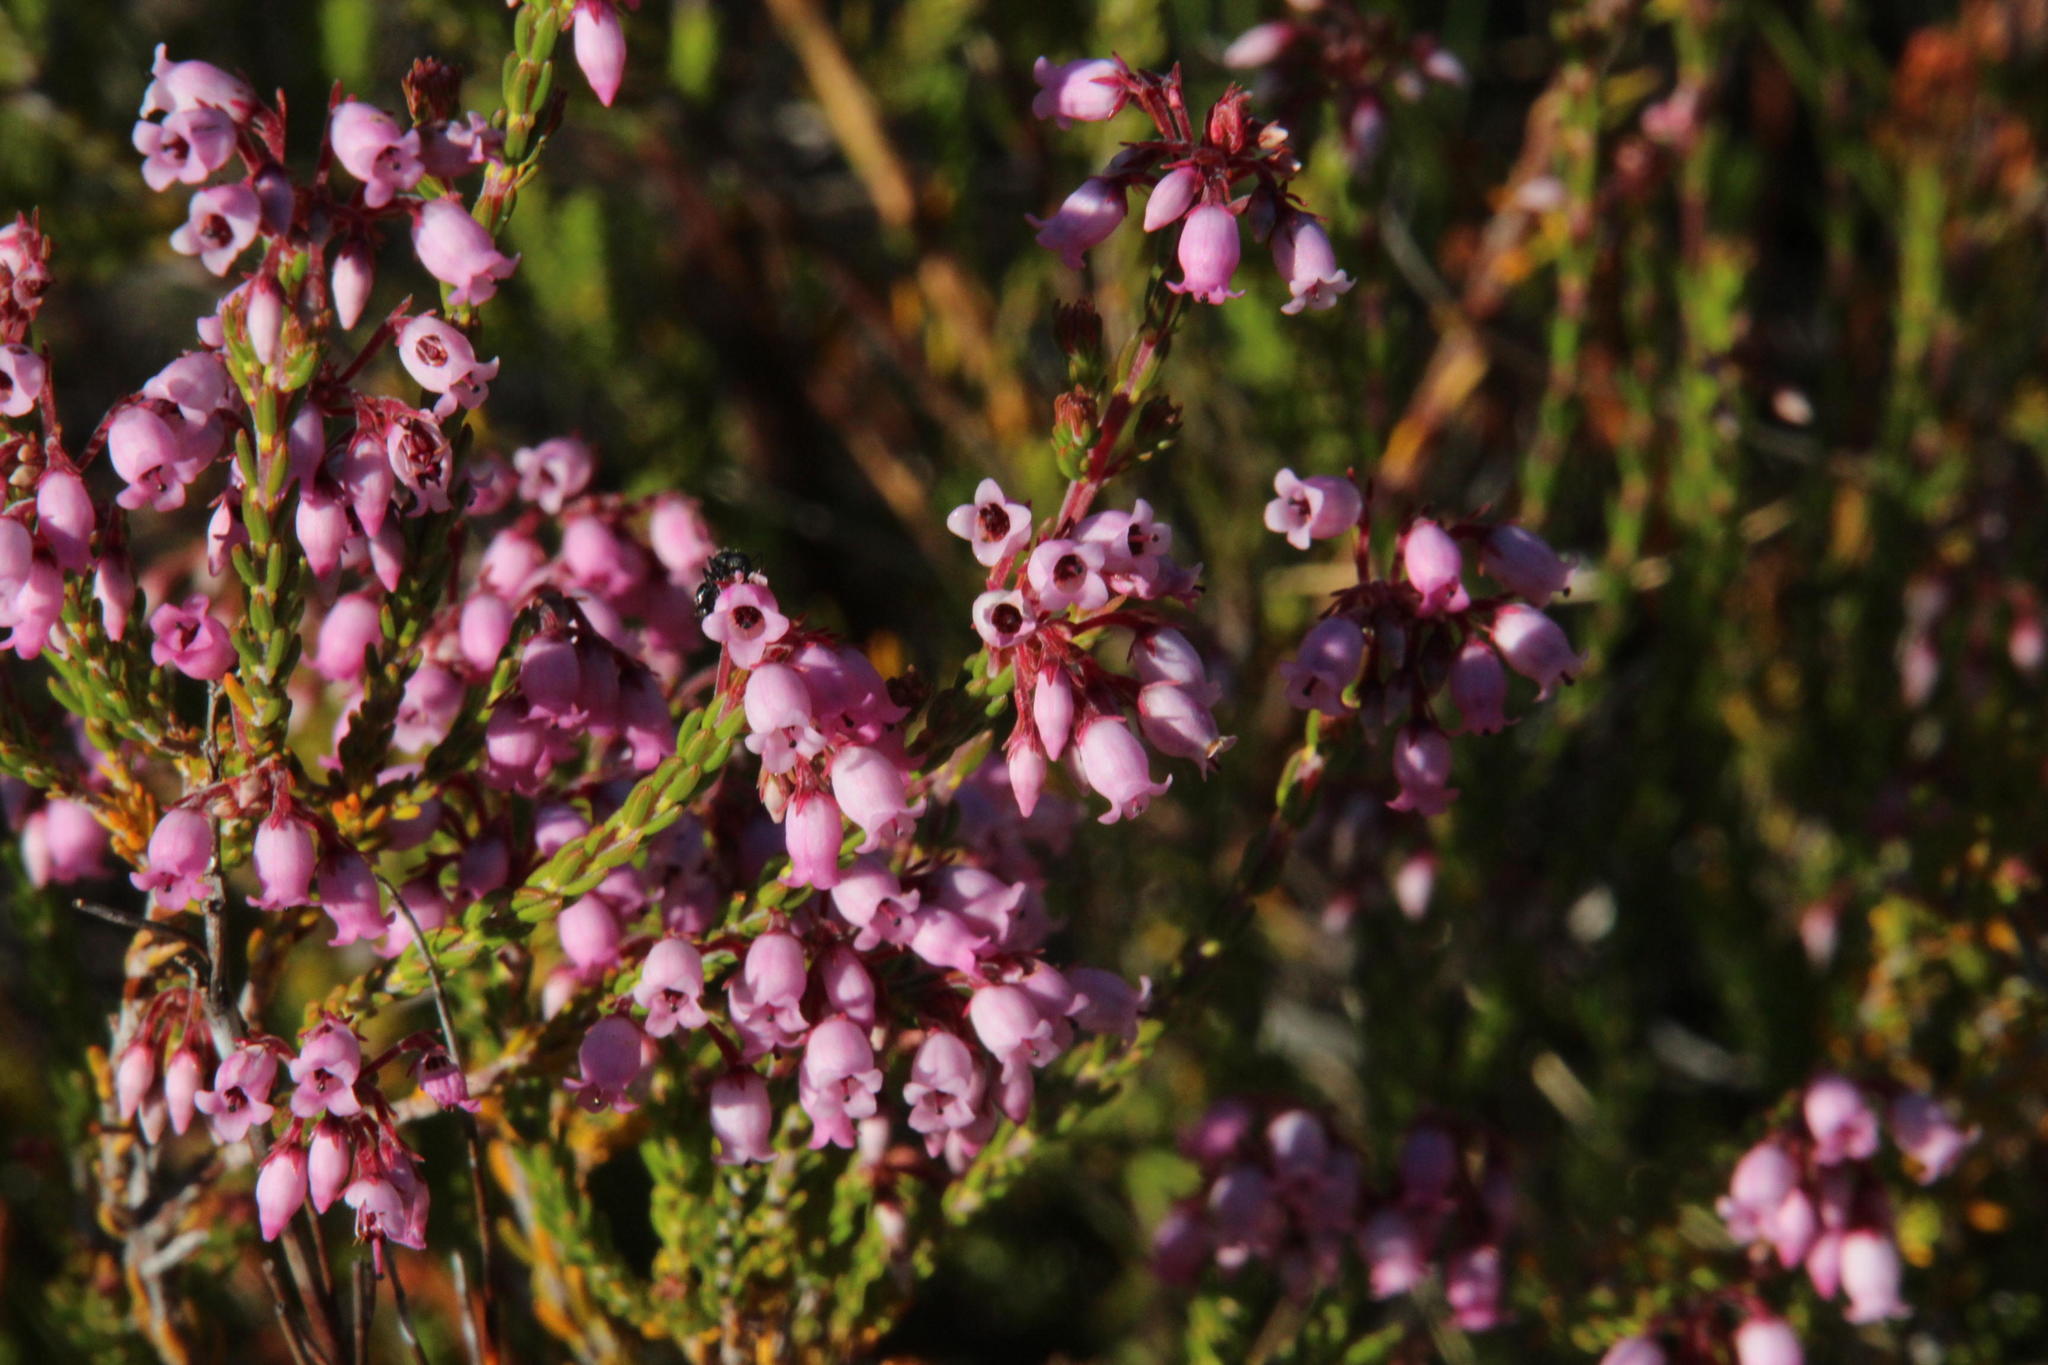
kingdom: Plantae
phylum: Tracheophyta
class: Magnoliopsida
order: Ericales
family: Ericaceae
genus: Erica
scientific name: Erica verecunda
